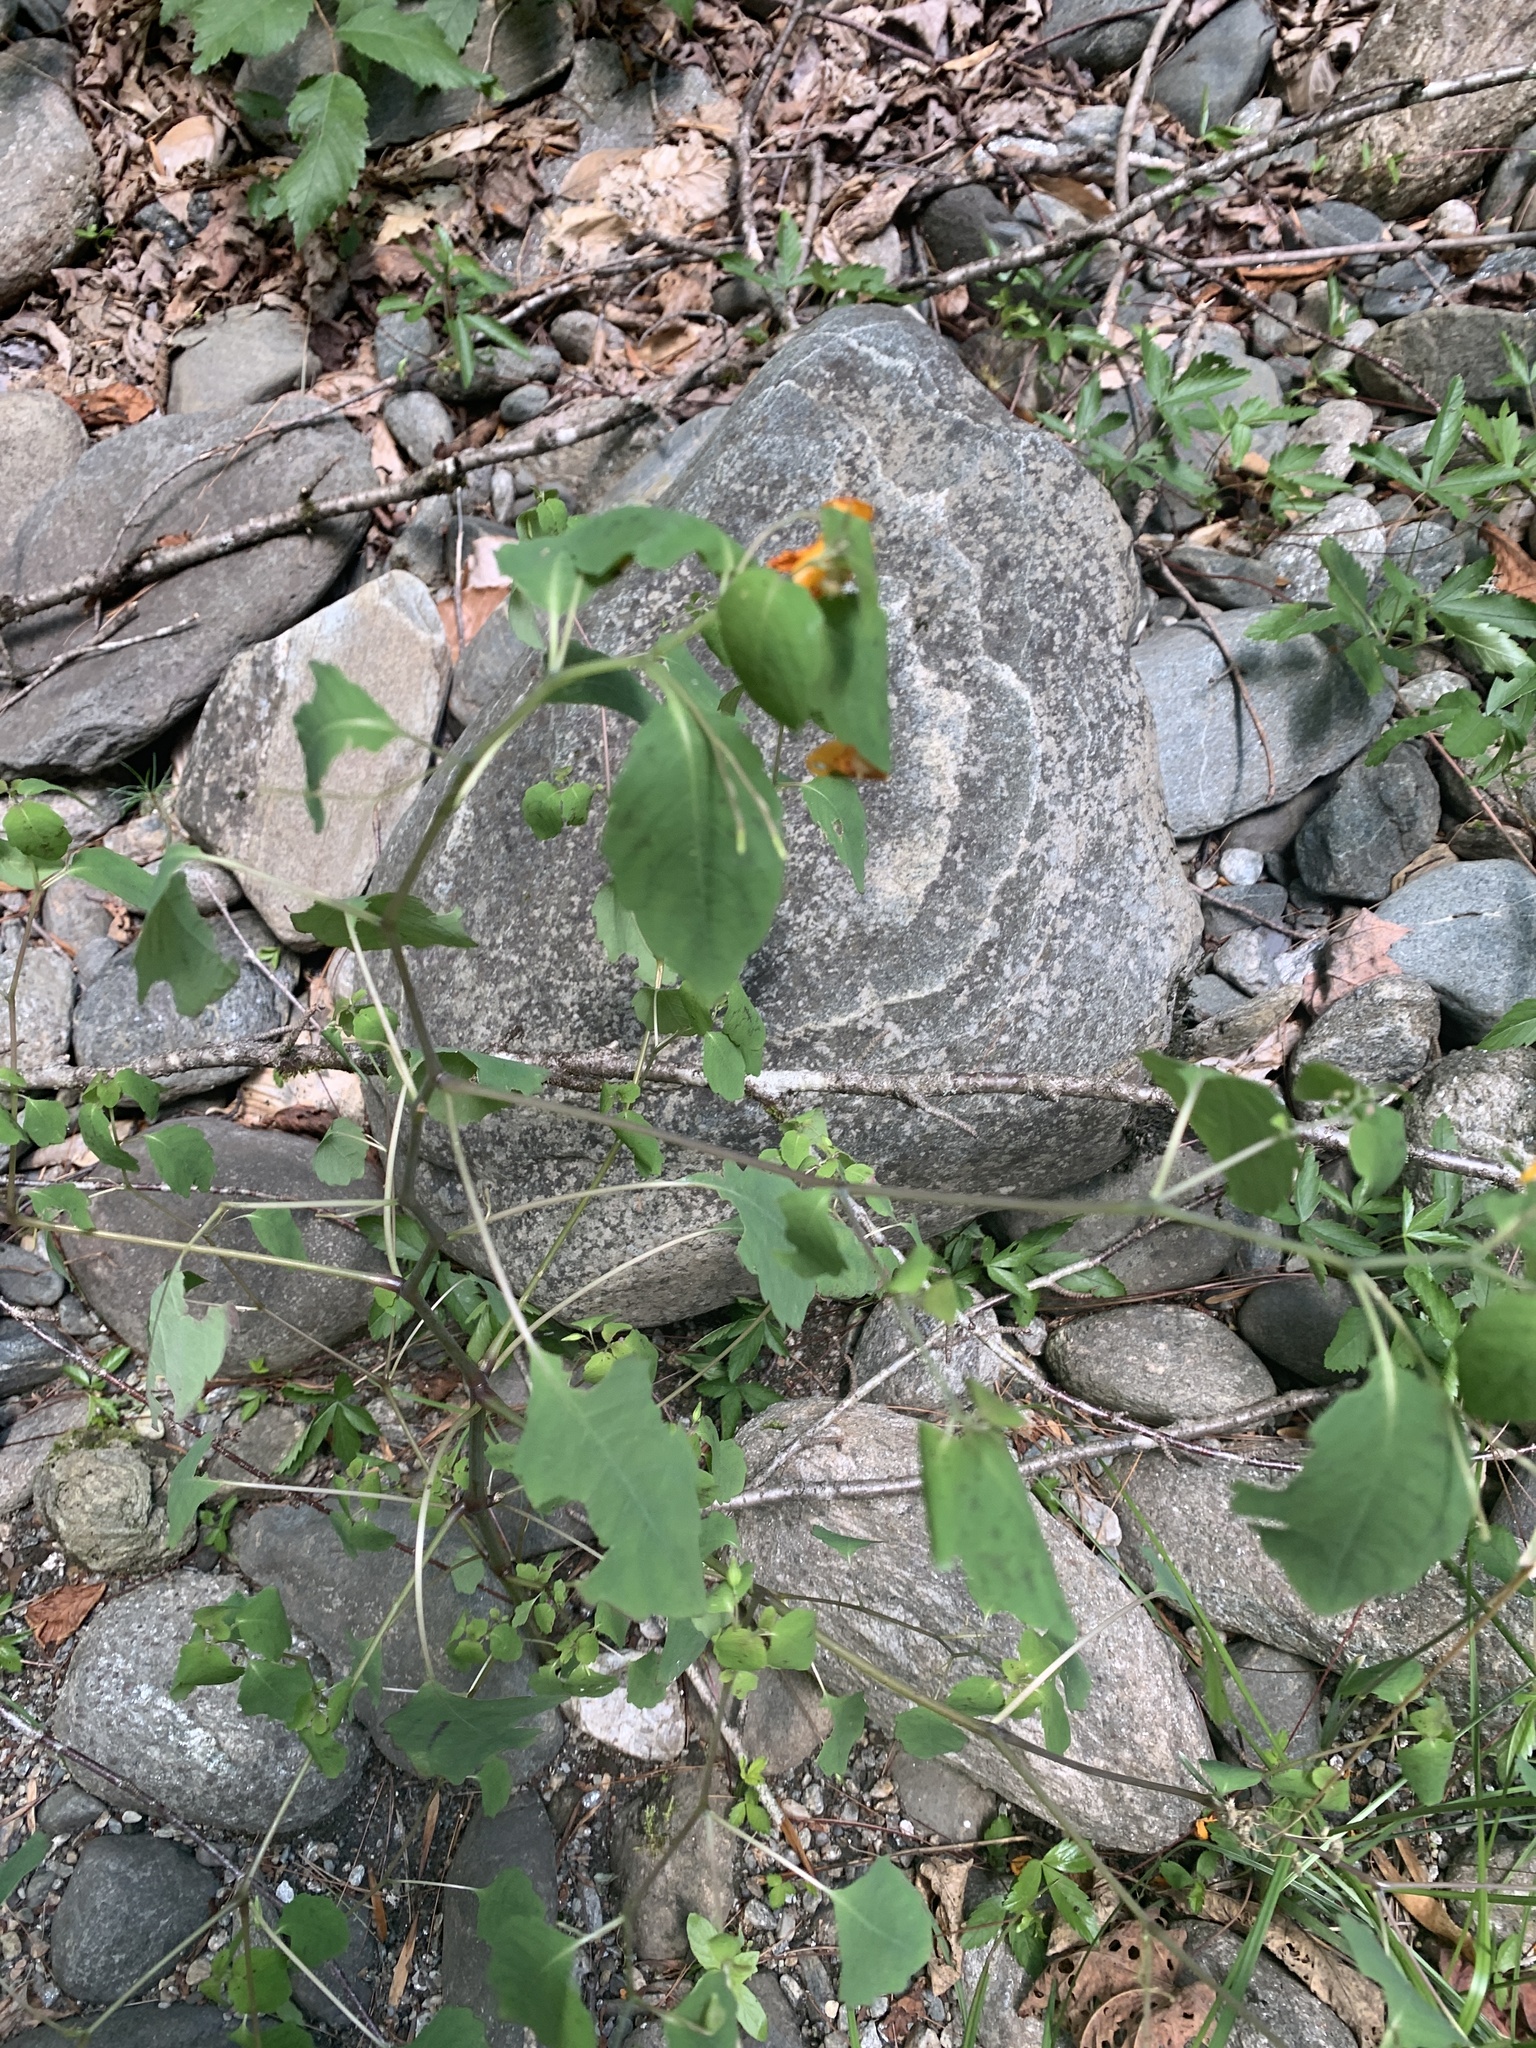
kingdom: Plantae
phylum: Tracheophyta
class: Magnoliopsida
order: Ericales
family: Balsaminaceae
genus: Impatiens
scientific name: Impatiens capensis
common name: Orange balsam
